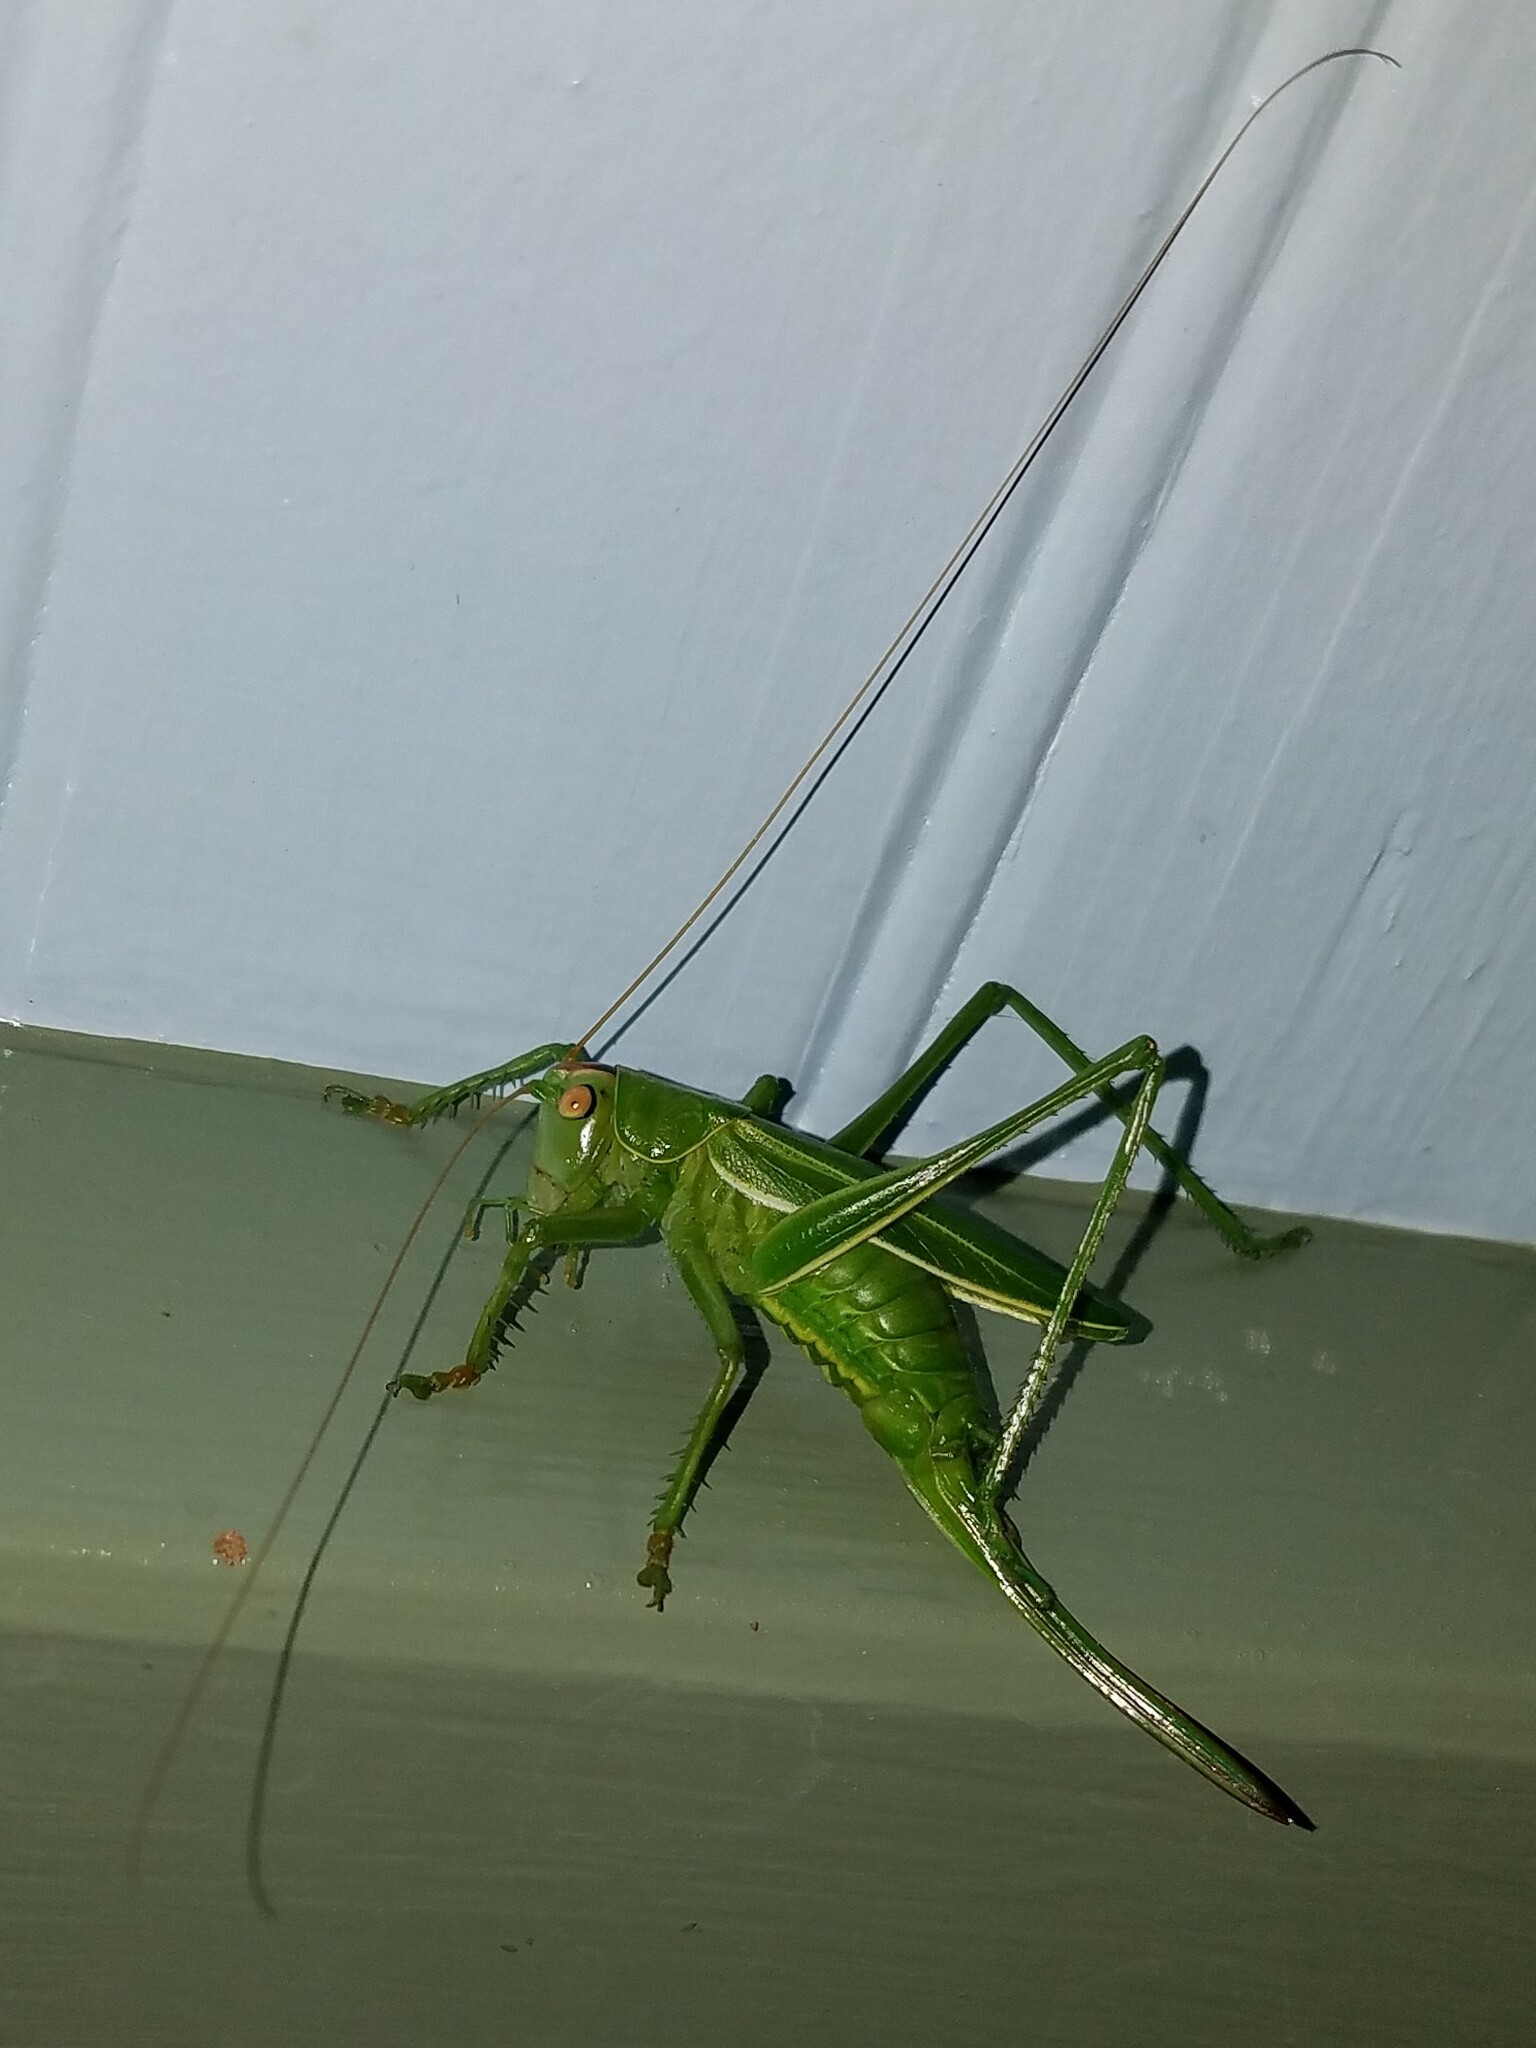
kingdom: Animalia
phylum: Arthropoda
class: Insecta
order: Orthoptera
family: Tettigoniidae
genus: Hubbellia
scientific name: Hubbellia marginifera
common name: Pine katydid
